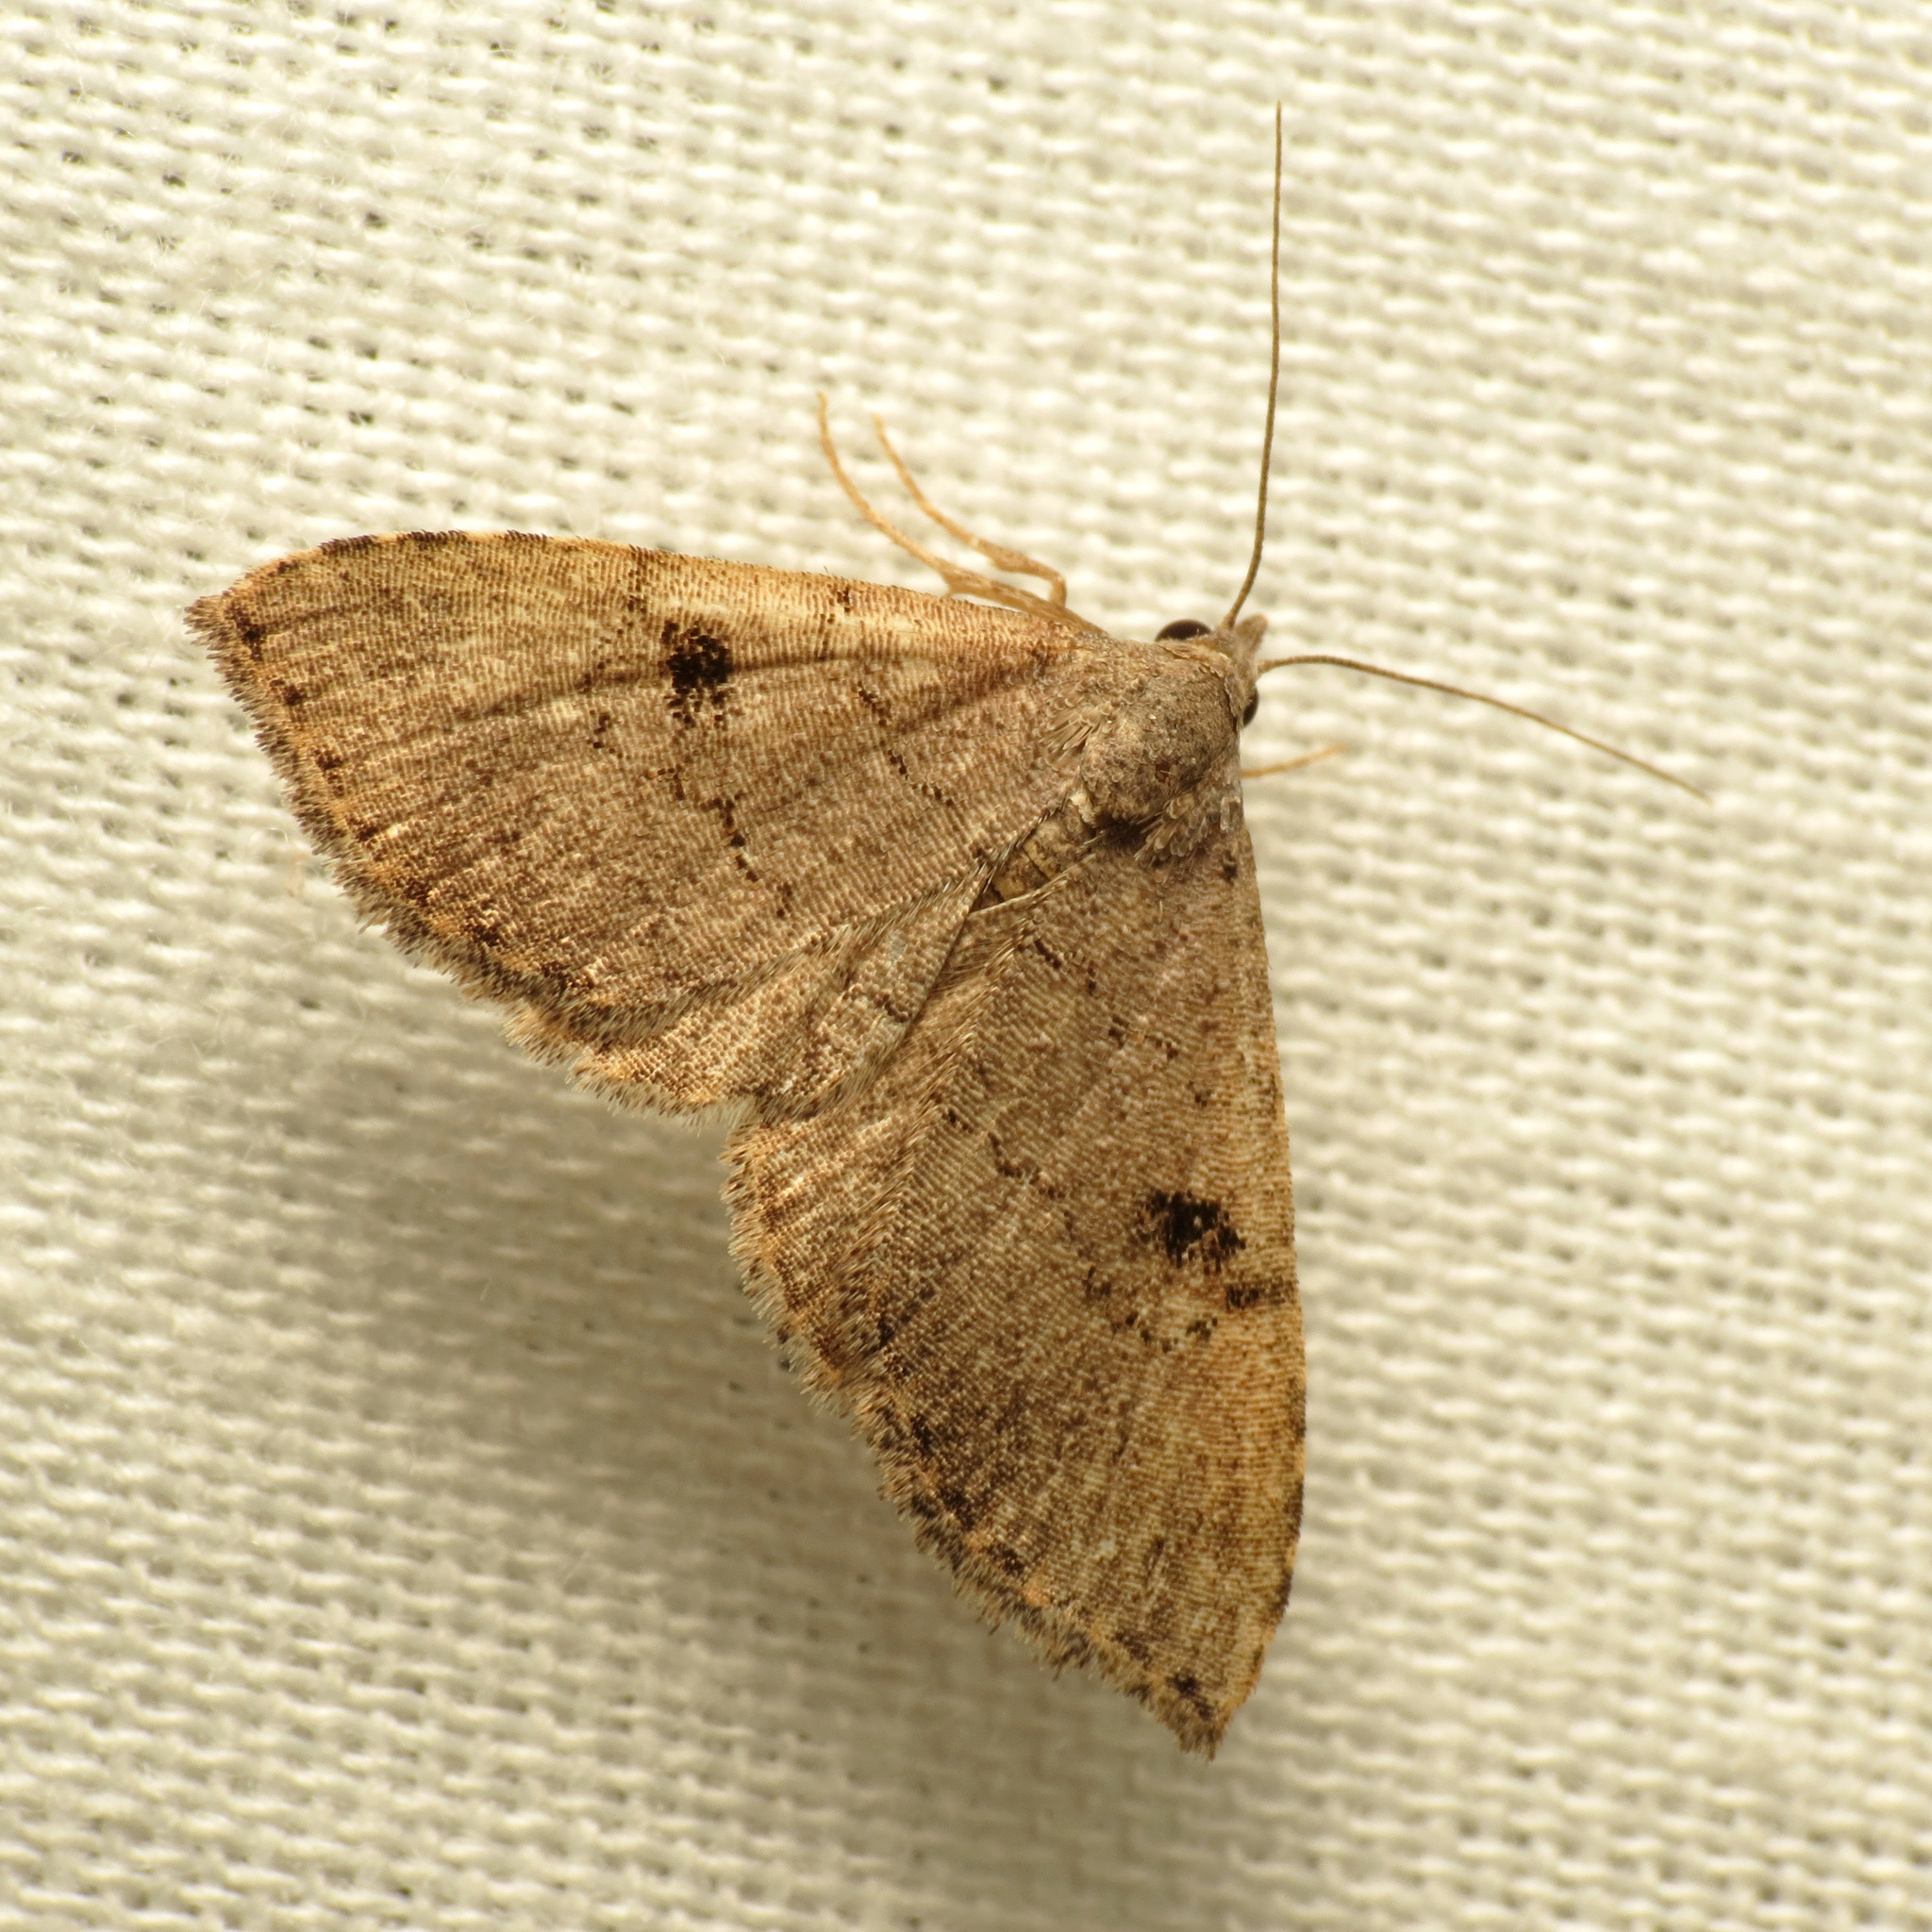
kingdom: Animalia
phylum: Arthropoda
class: Insecta
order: Lepidoptera
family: Erebidae
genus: Nychioptera
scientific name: Nychioptera noctuidalis
